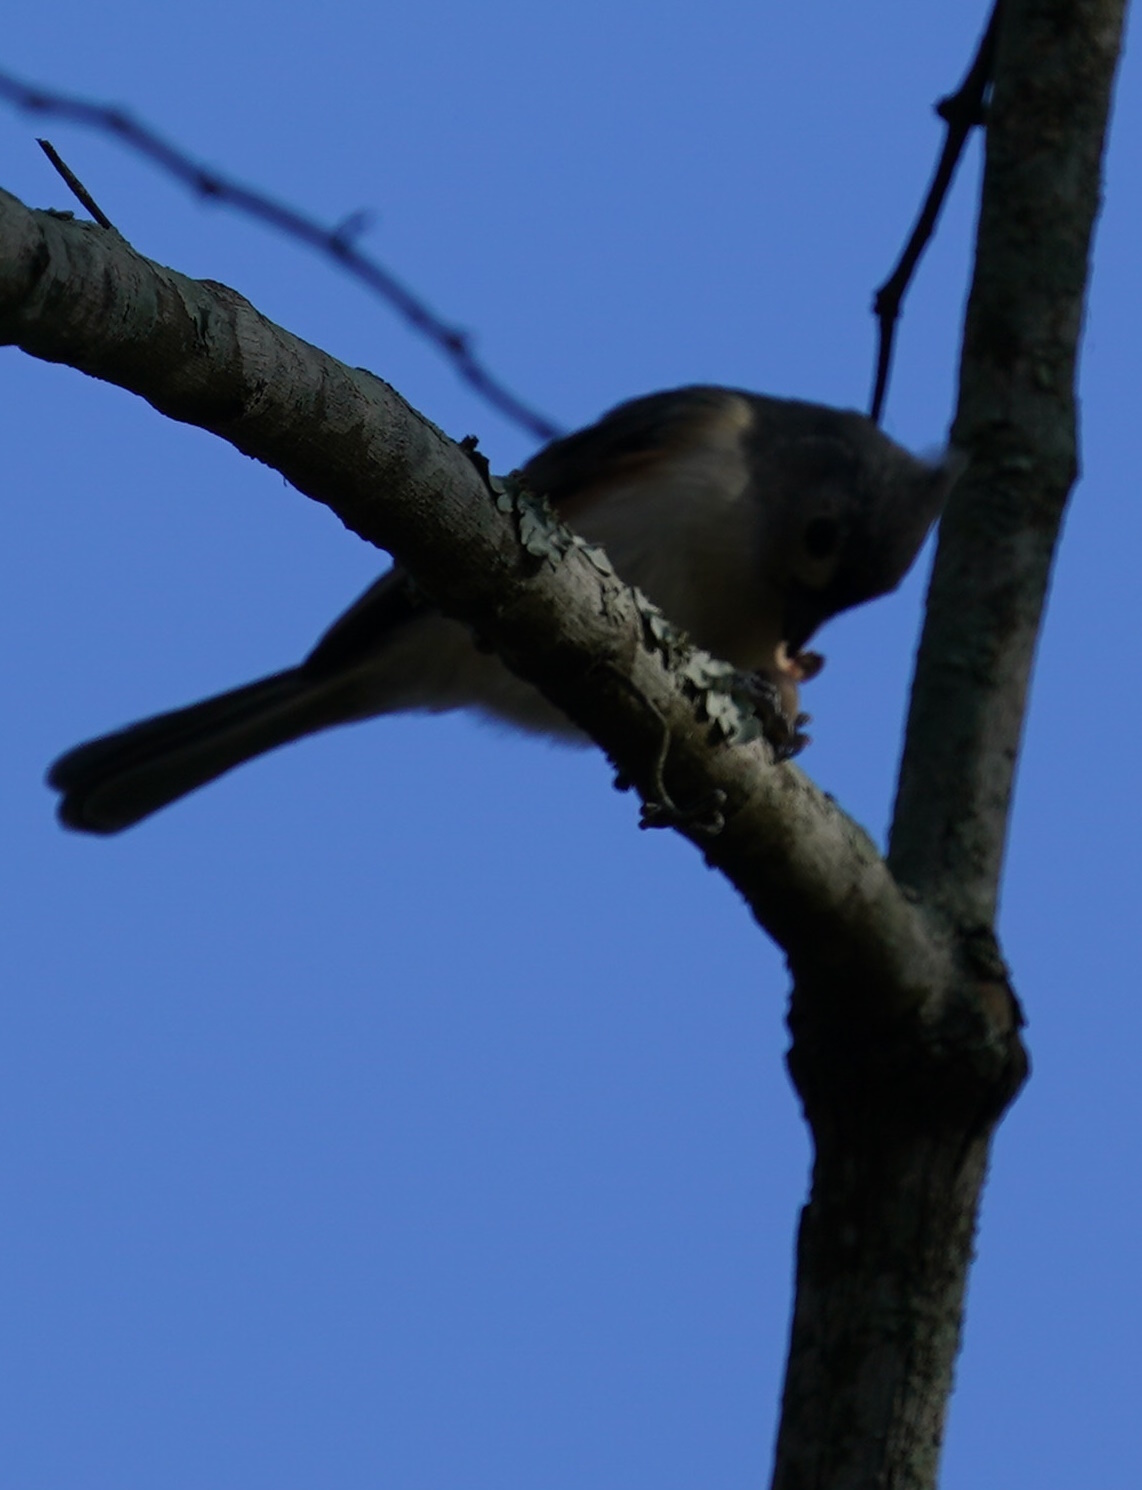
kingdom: Animalia
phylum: Chordata
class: Aves
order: Passeriformes
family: Paridae
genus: Baeolophus
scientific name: Baeolophus bicolor
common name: Tufted titmouse
